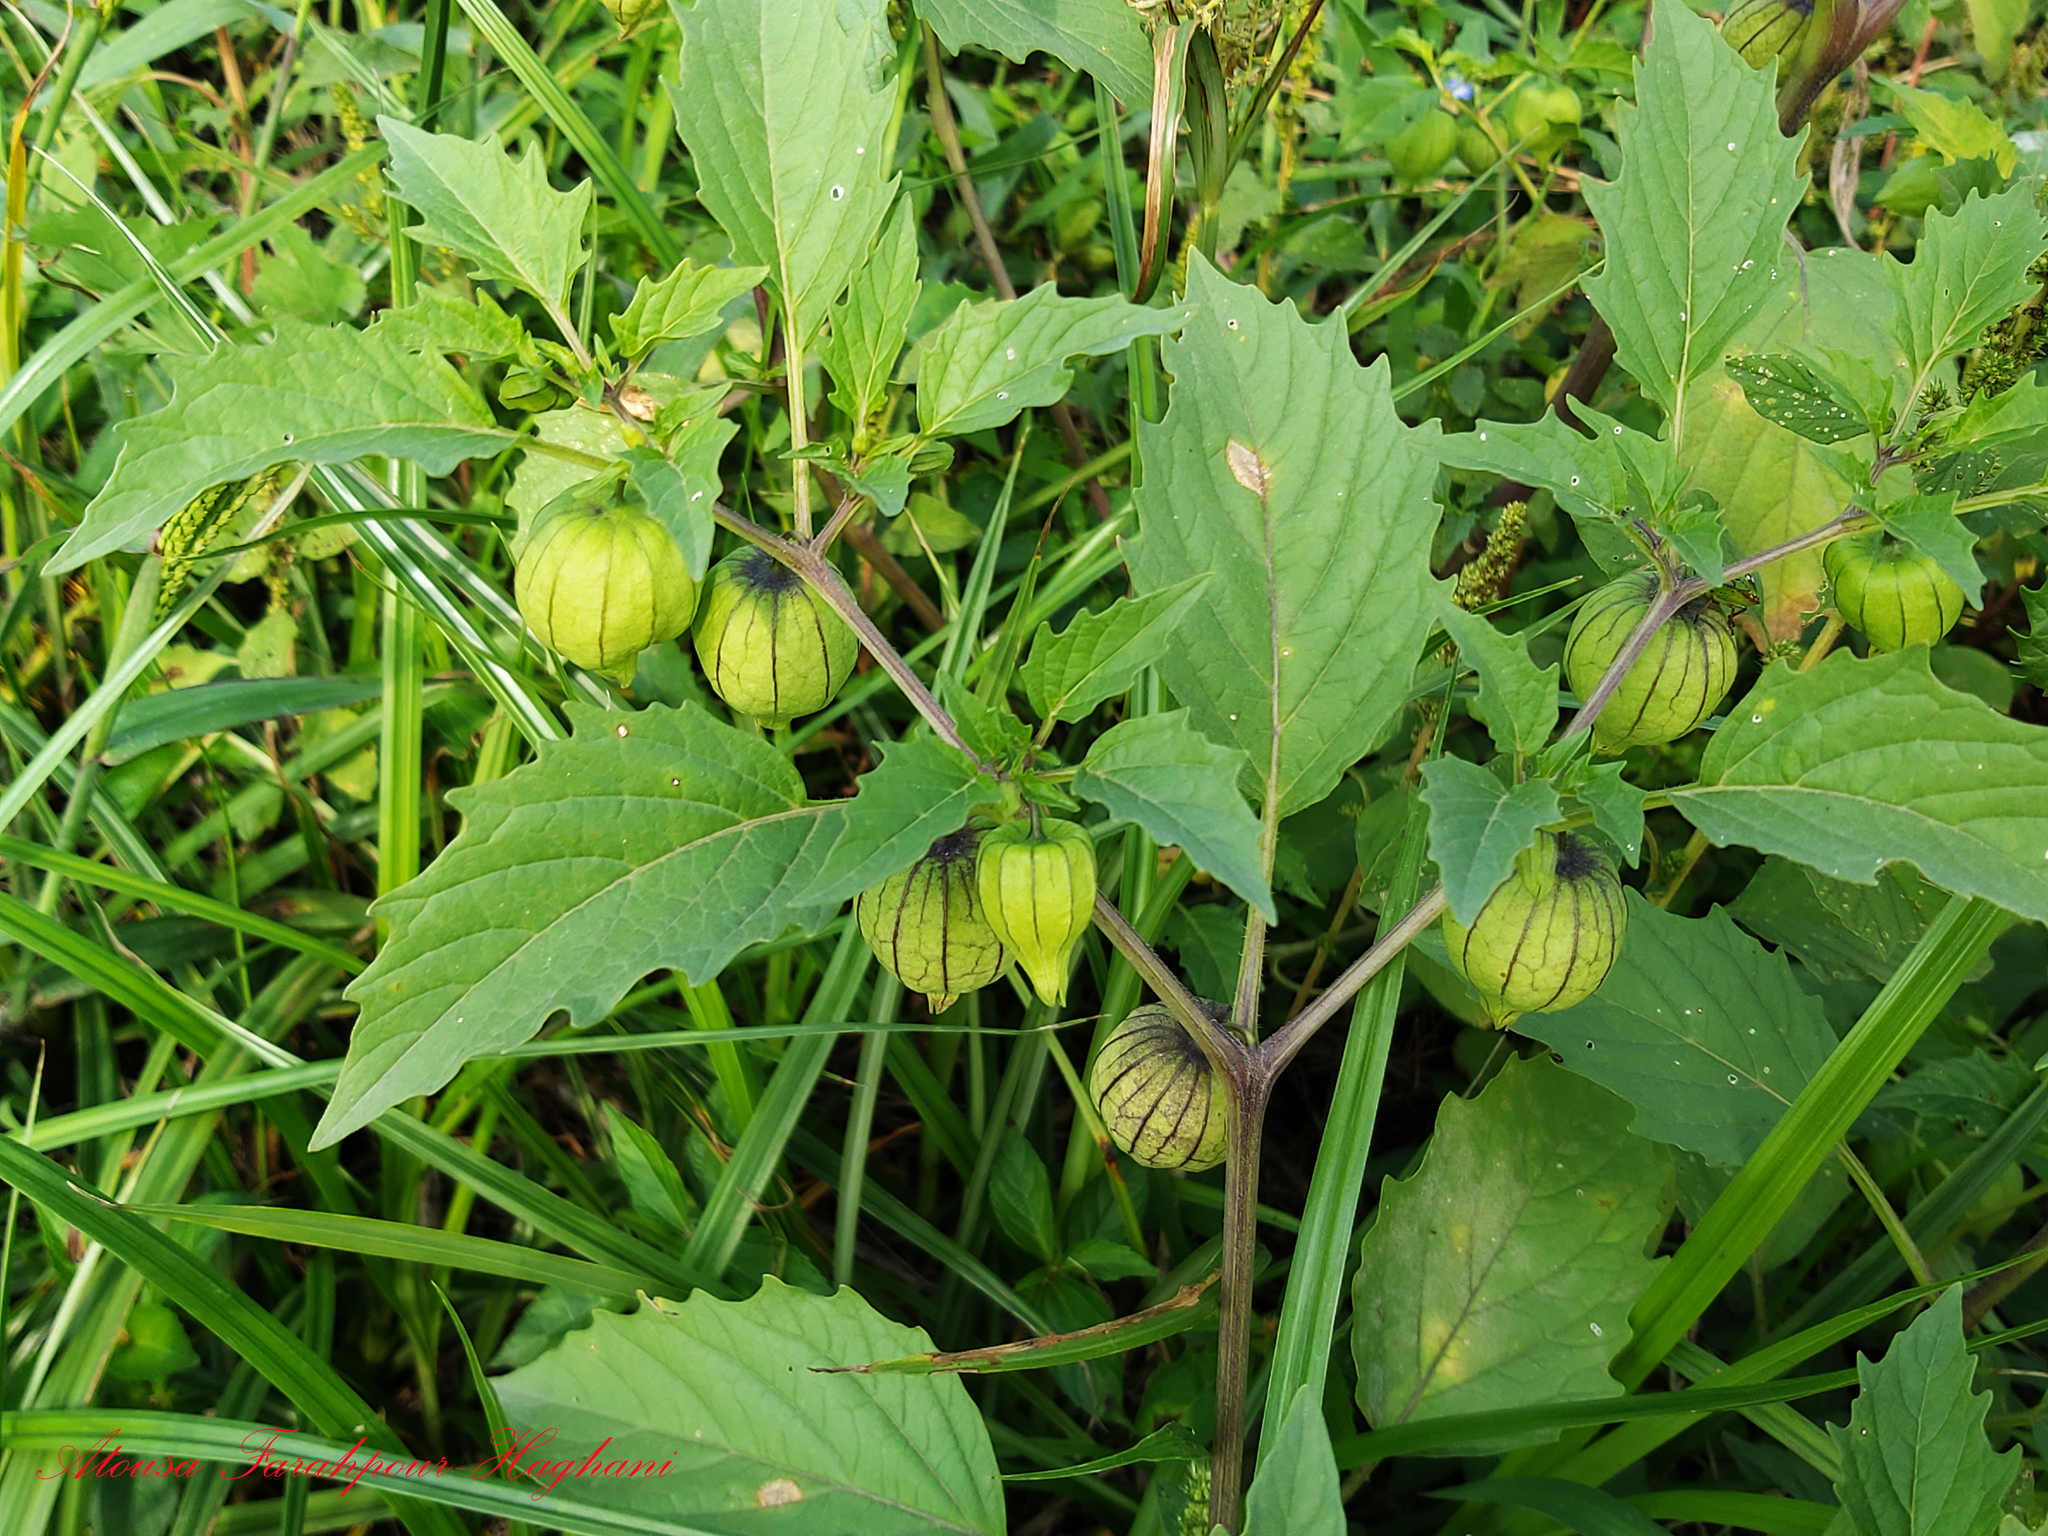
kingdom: Plantae
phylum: Tracheophyta
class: Magnoliopsida
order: Solanales
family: Solanaceae
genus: Physalis
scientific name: Physalis angulata
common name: Angular winter-cherry
